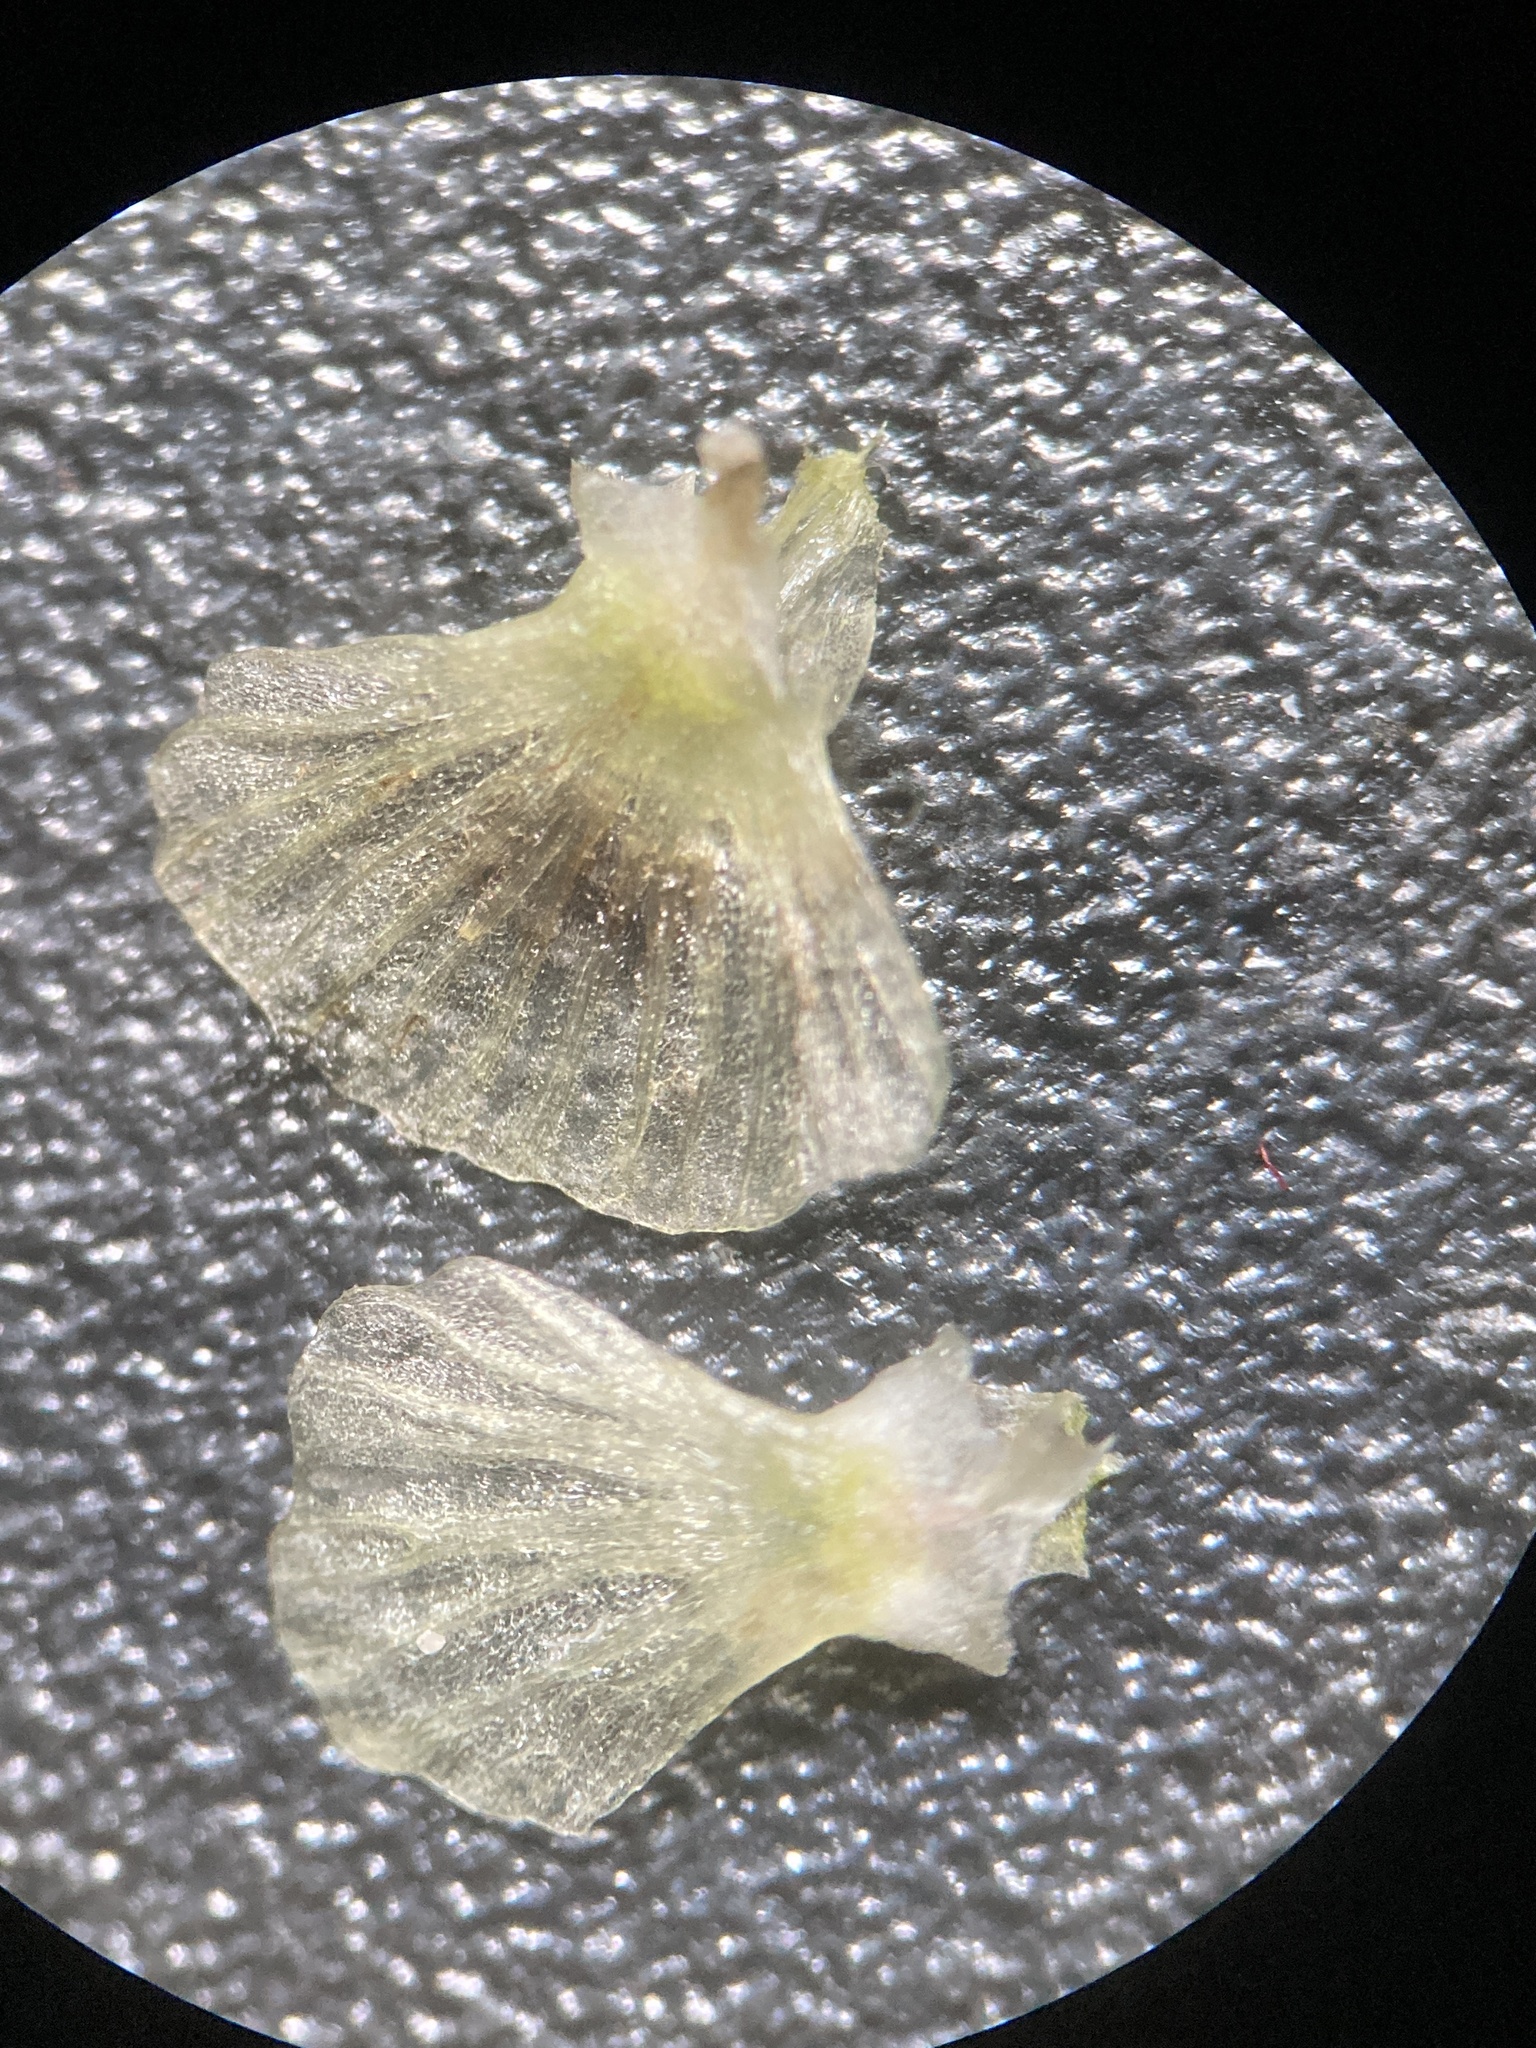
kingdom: Plantae
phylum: Tracheophyta
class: Magnoliopsida
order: Caryophyllales
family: Amaranthaceae
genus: Salsola
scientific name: Salsola australis
